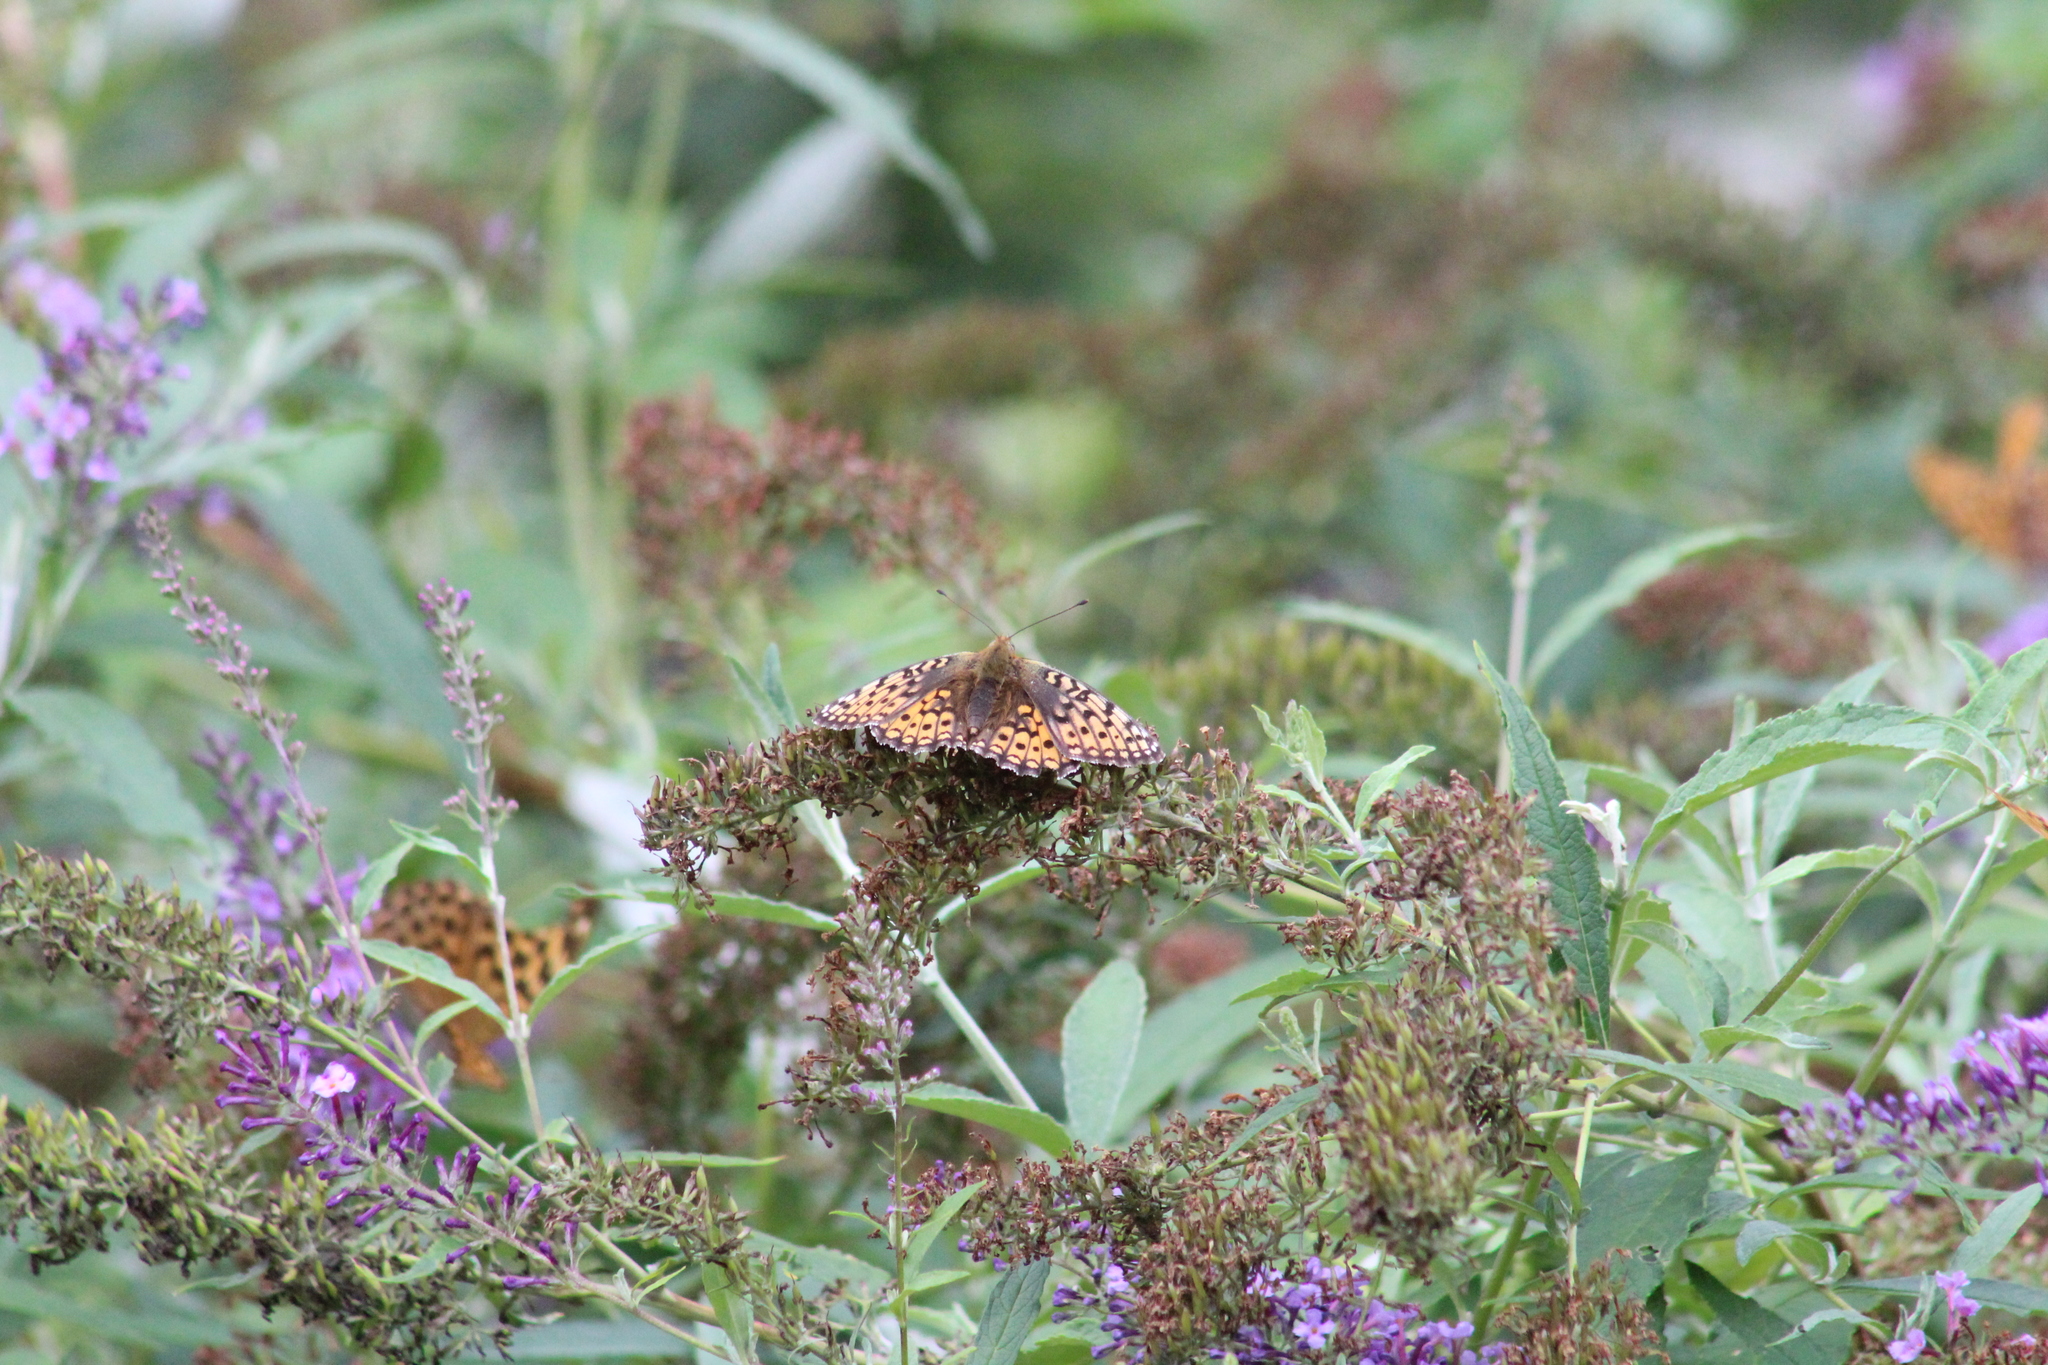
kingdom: Animalia
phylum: Arthropoda
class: Insecta
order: Lepidoptera
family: Nymphalidae
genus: Fabriciana
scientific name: Fabriciana niobe
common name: Niobe fritillary
